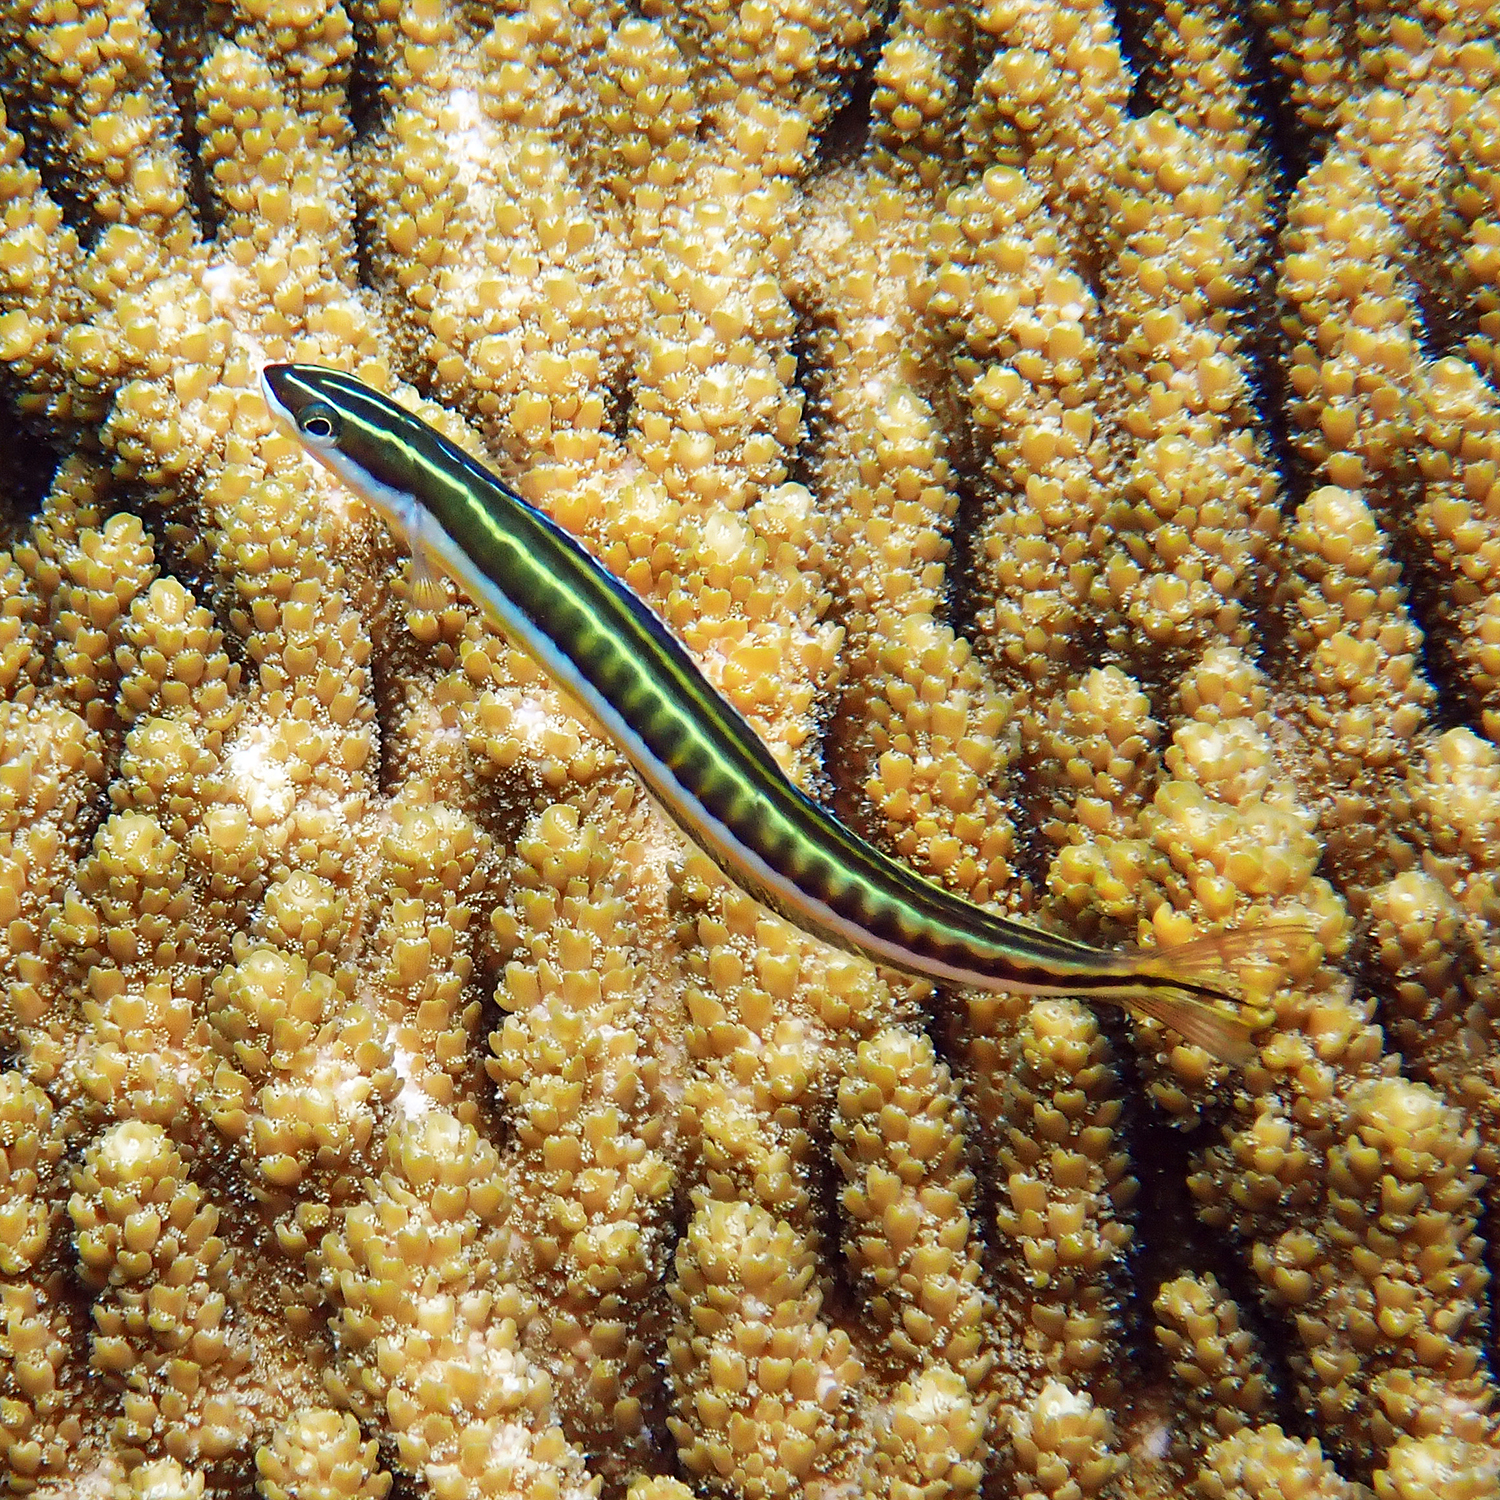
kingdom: Animalia
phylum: Chordata
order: Perciformes
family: Blenniidae
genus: Plagiotremus
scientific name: Plagiotremus tapeinosoma
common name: Hit and run blenny
